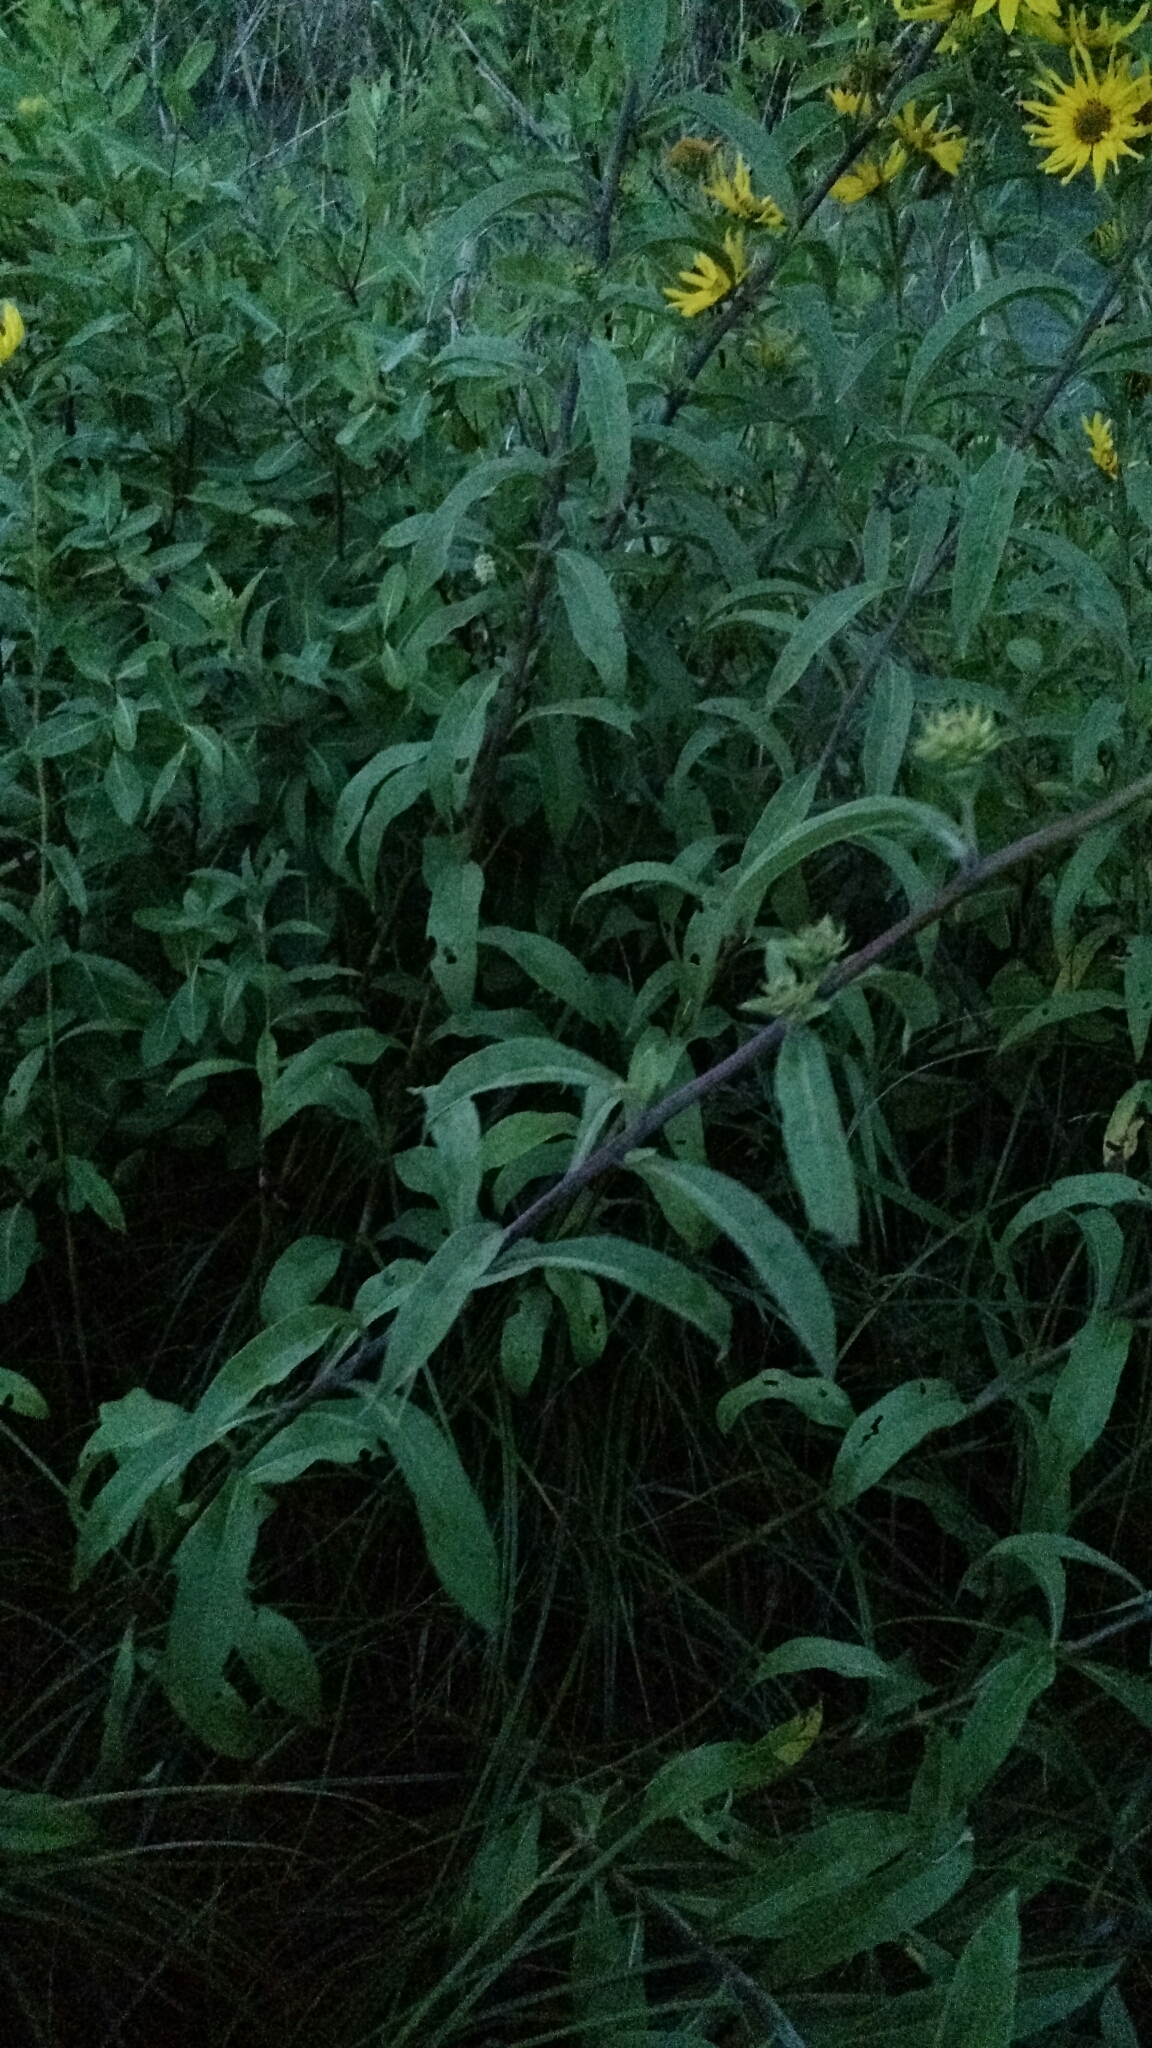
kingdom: Plantae
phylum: Tracheophyta
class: Magnoliopsida
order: Asterales
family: Asteraceae
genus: Helianthus
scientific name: Helianthus maximiliani
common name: Maximilian's sunflower
